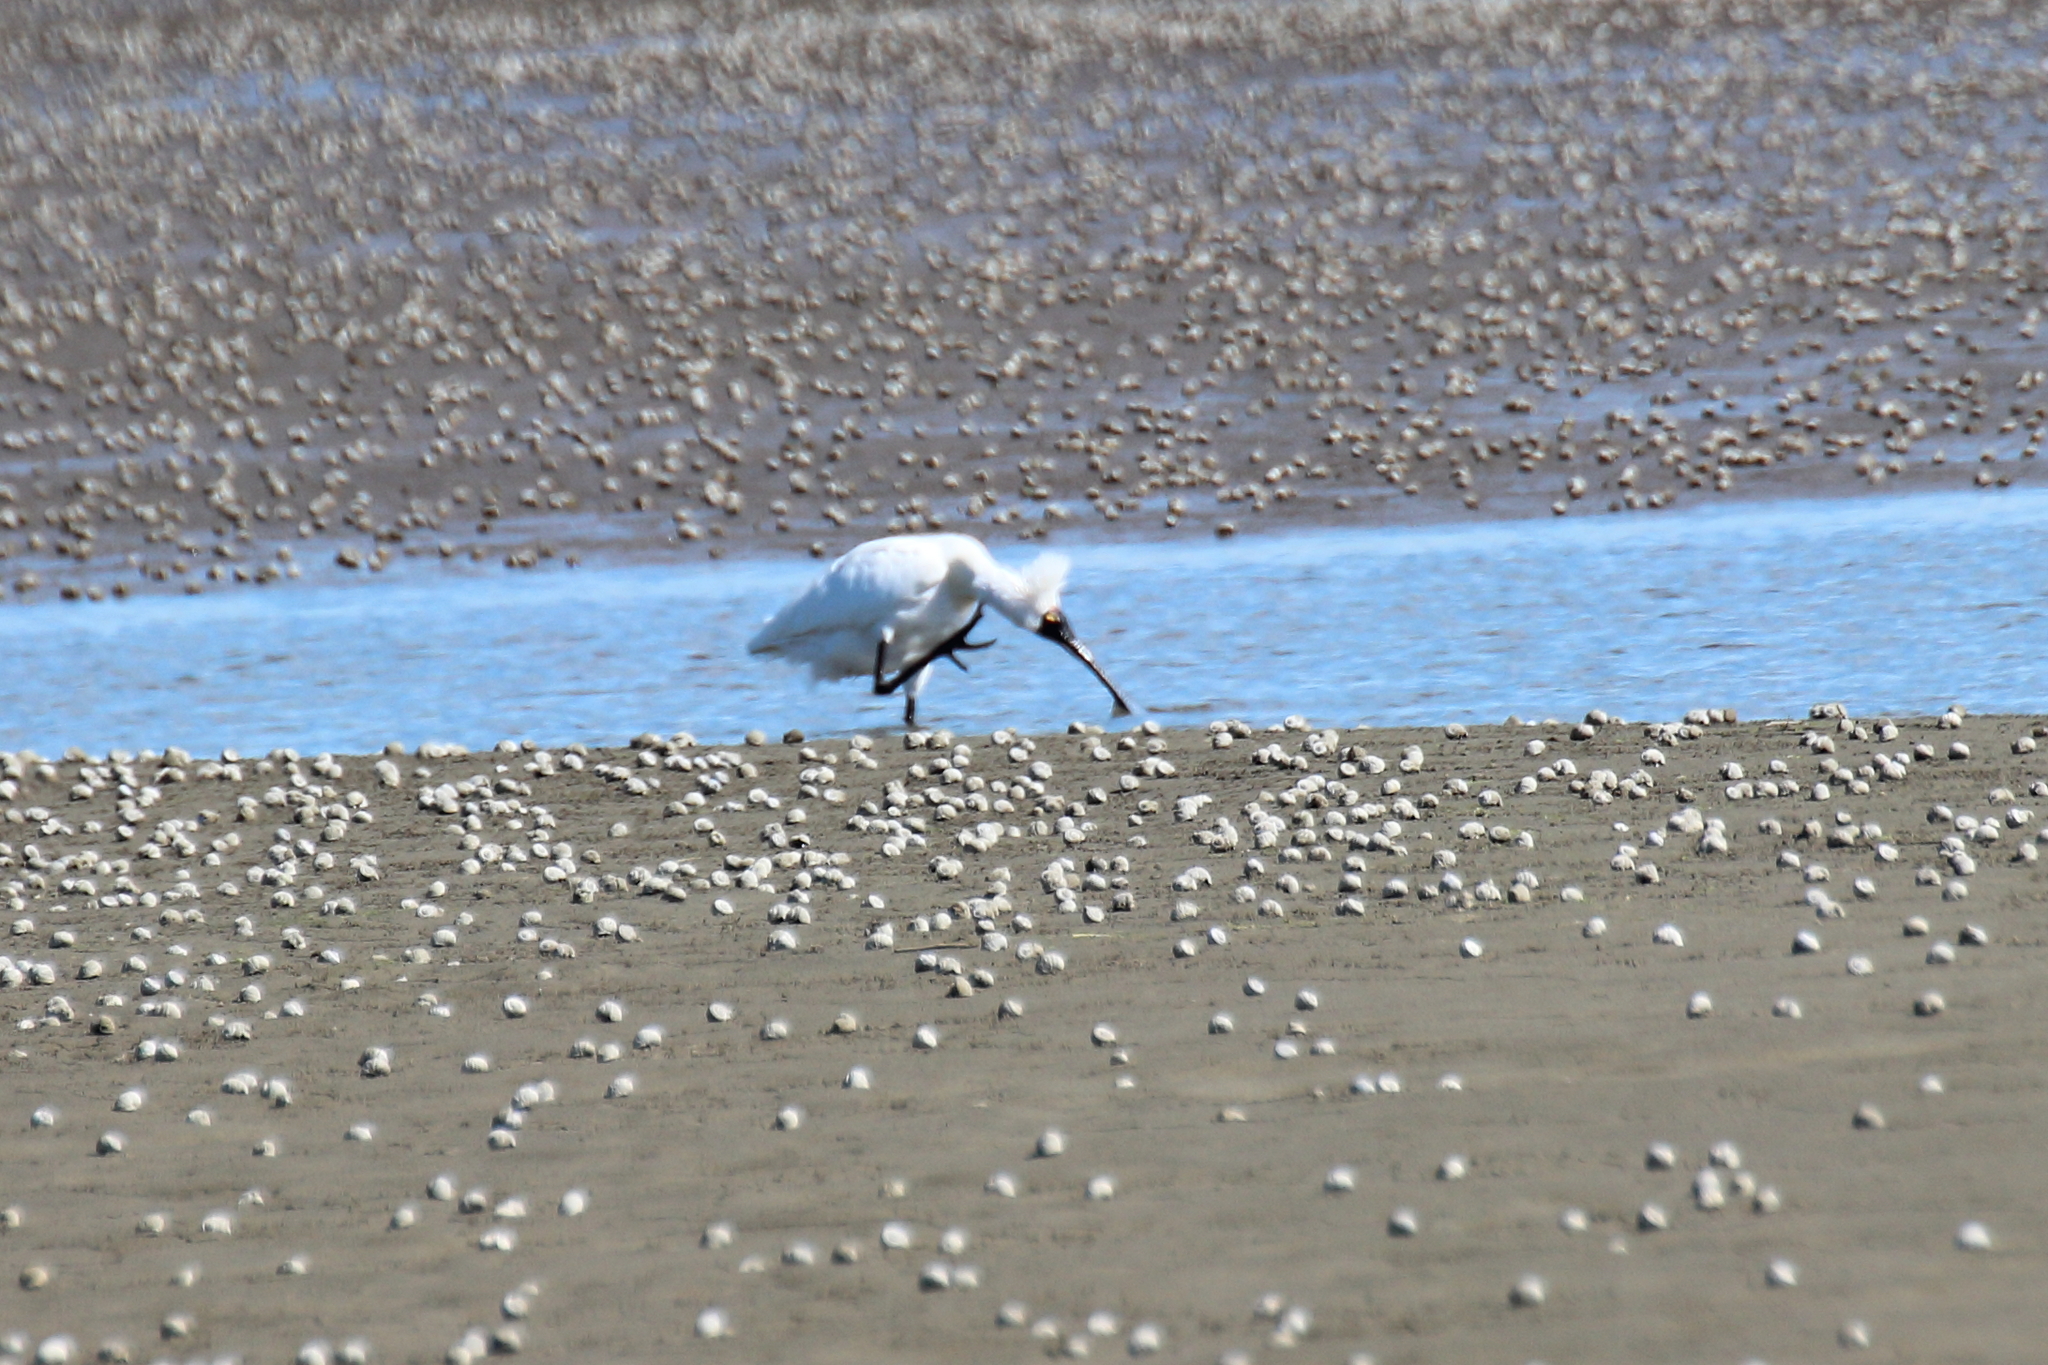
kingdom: Animalia
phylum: Chordata
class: Aves
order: Pelecaniformes
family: Threskiornithidae
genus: Platalea
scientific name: Platalea regia
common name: Royal spoonbill
